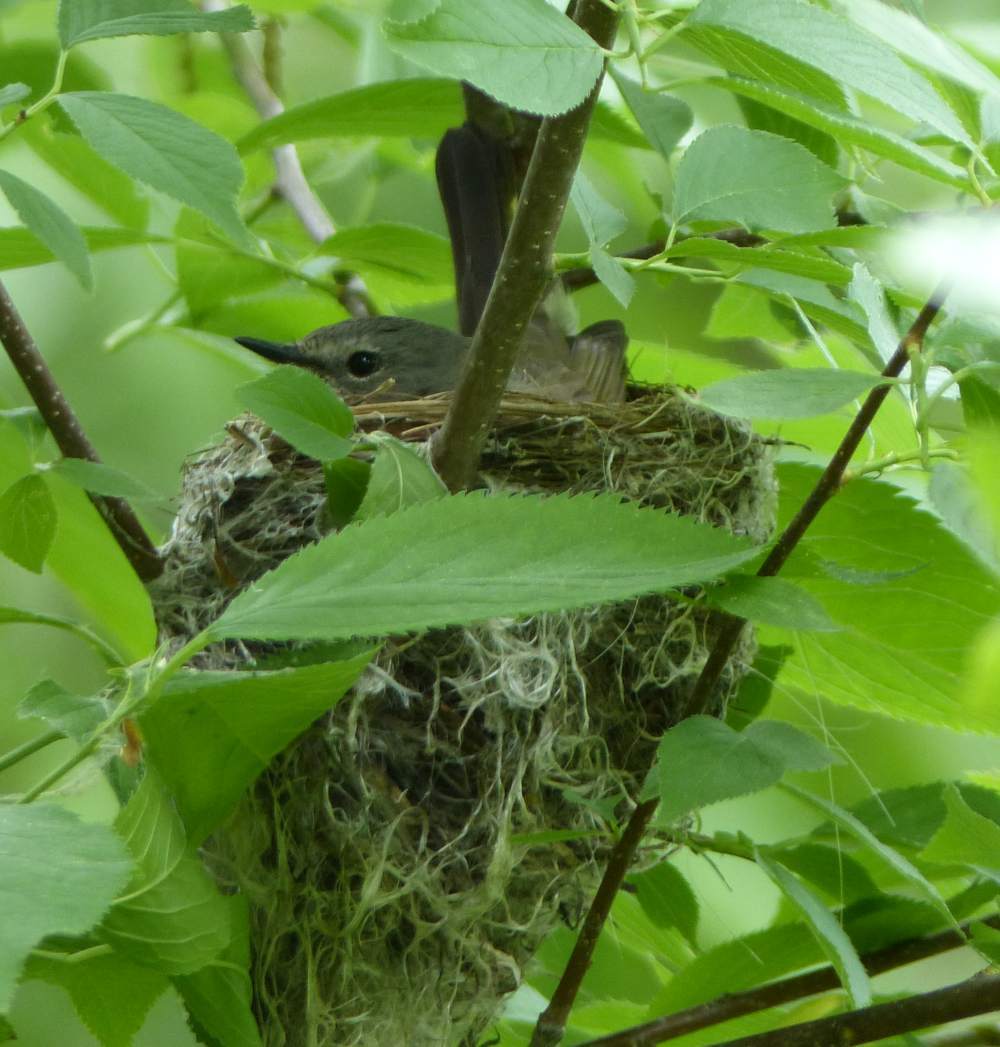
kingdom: Animalia
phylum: Chordata
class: Aves
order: Passeriformes
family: Parulidae
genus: Setophaga
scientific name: Setophaga ruticilla
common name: American redstart
